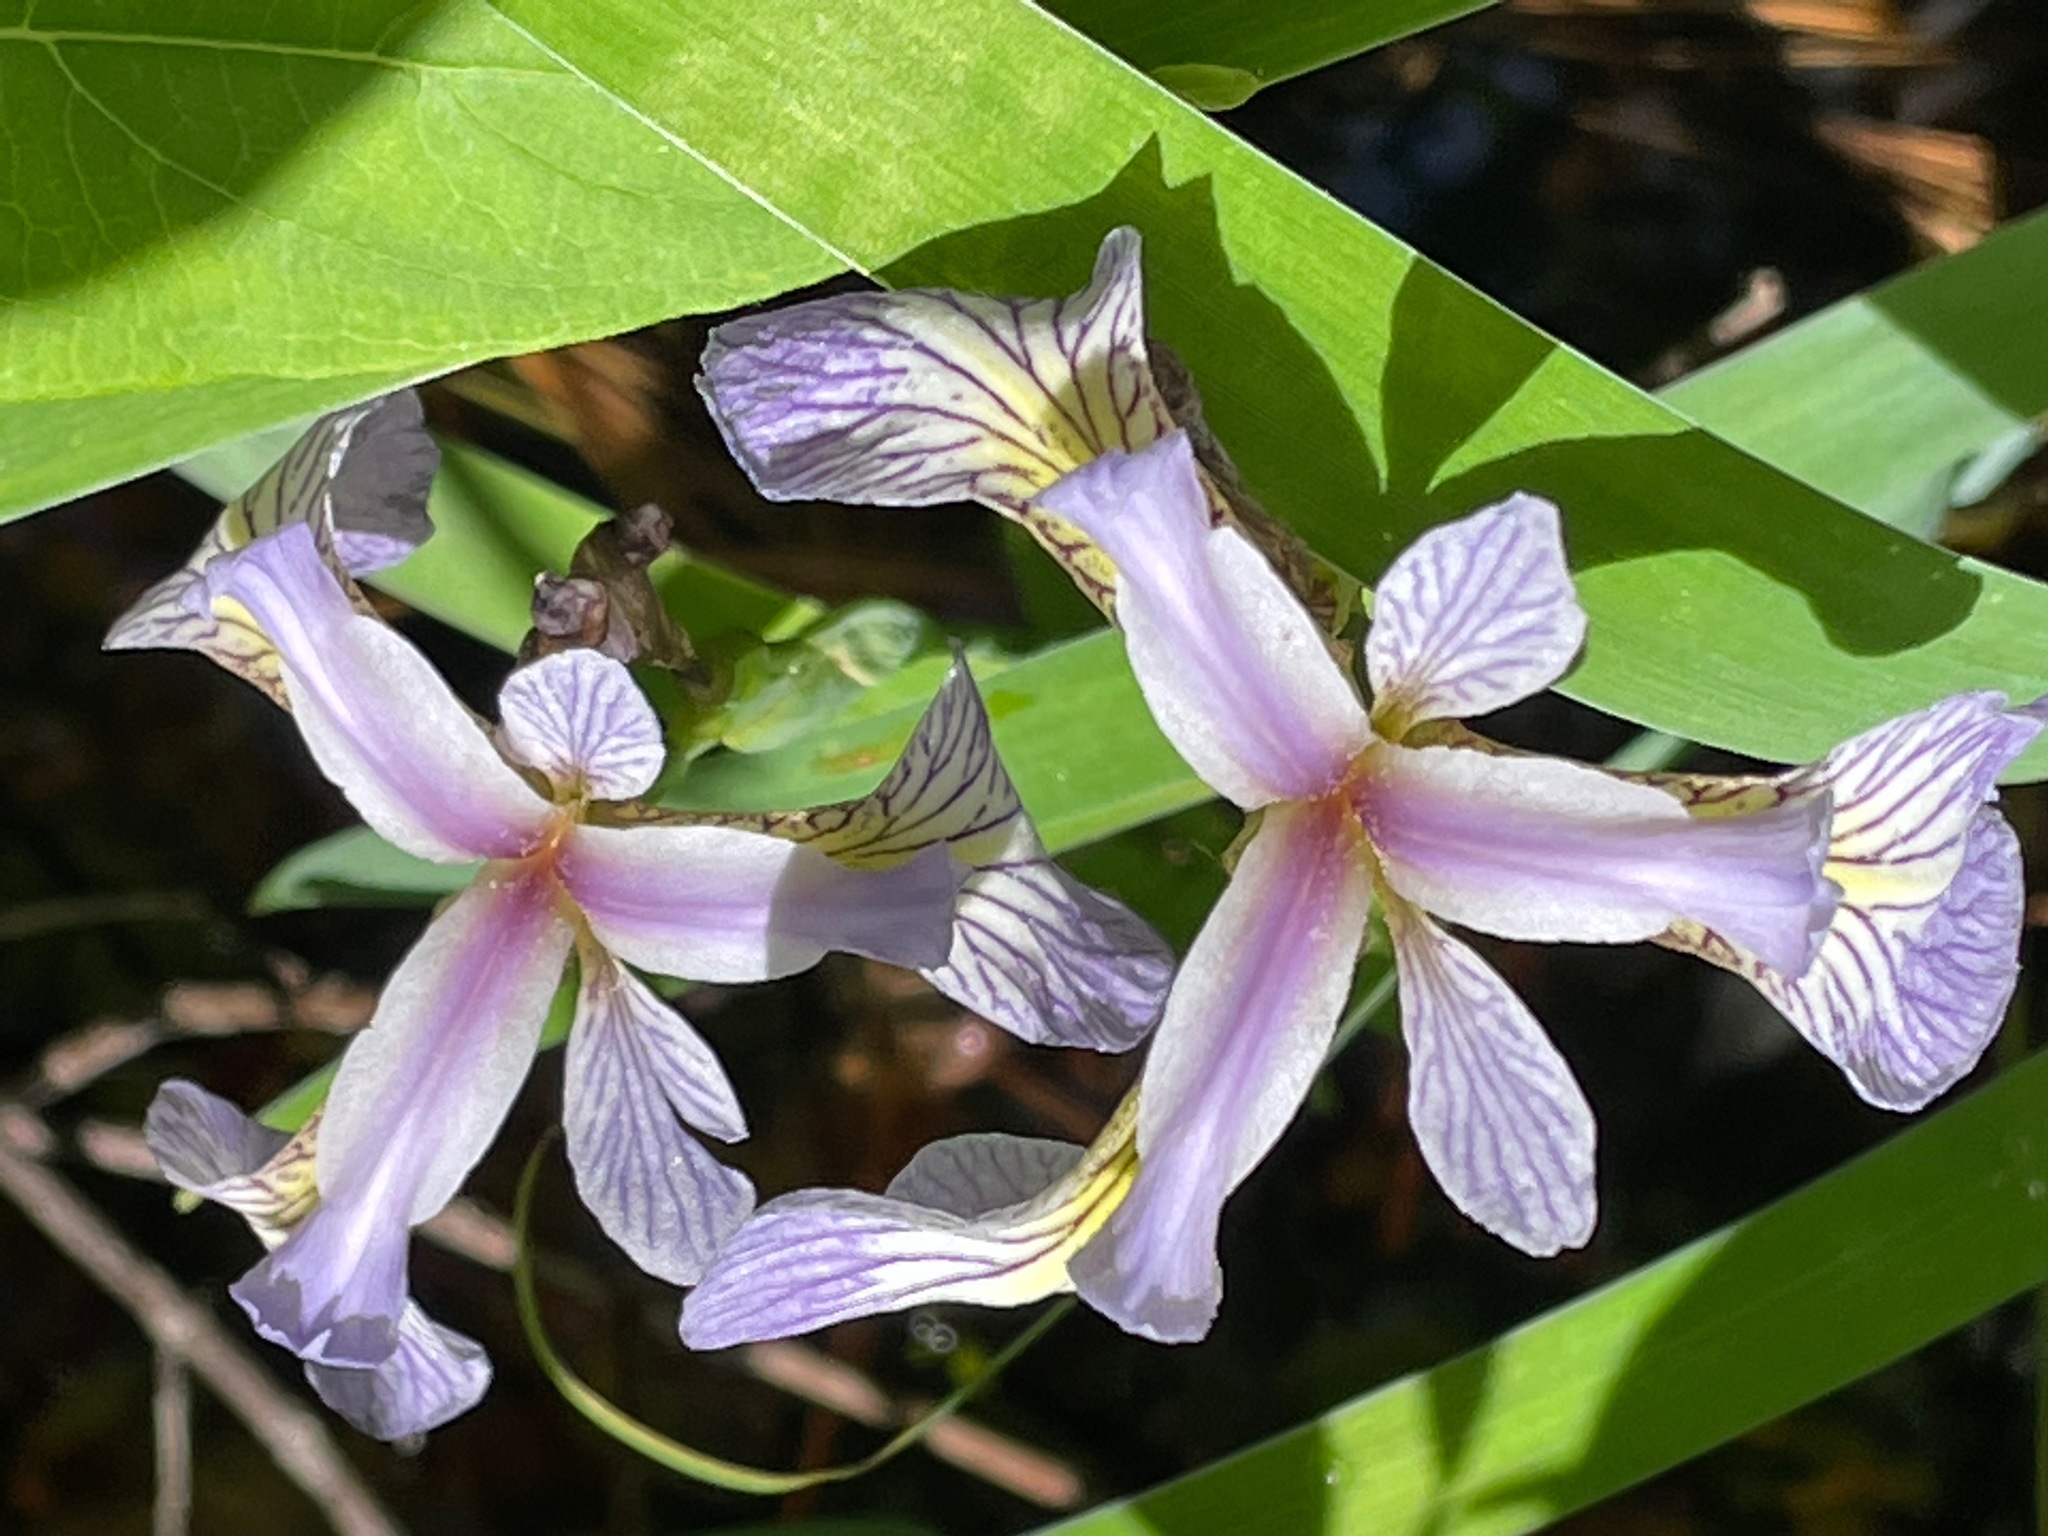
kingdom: Plantae
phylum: Tracheophyta
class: Liliopsida
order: Asparagales
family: Iridaceae
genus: Iris
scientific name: Iris versicolor
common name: Purple iris
